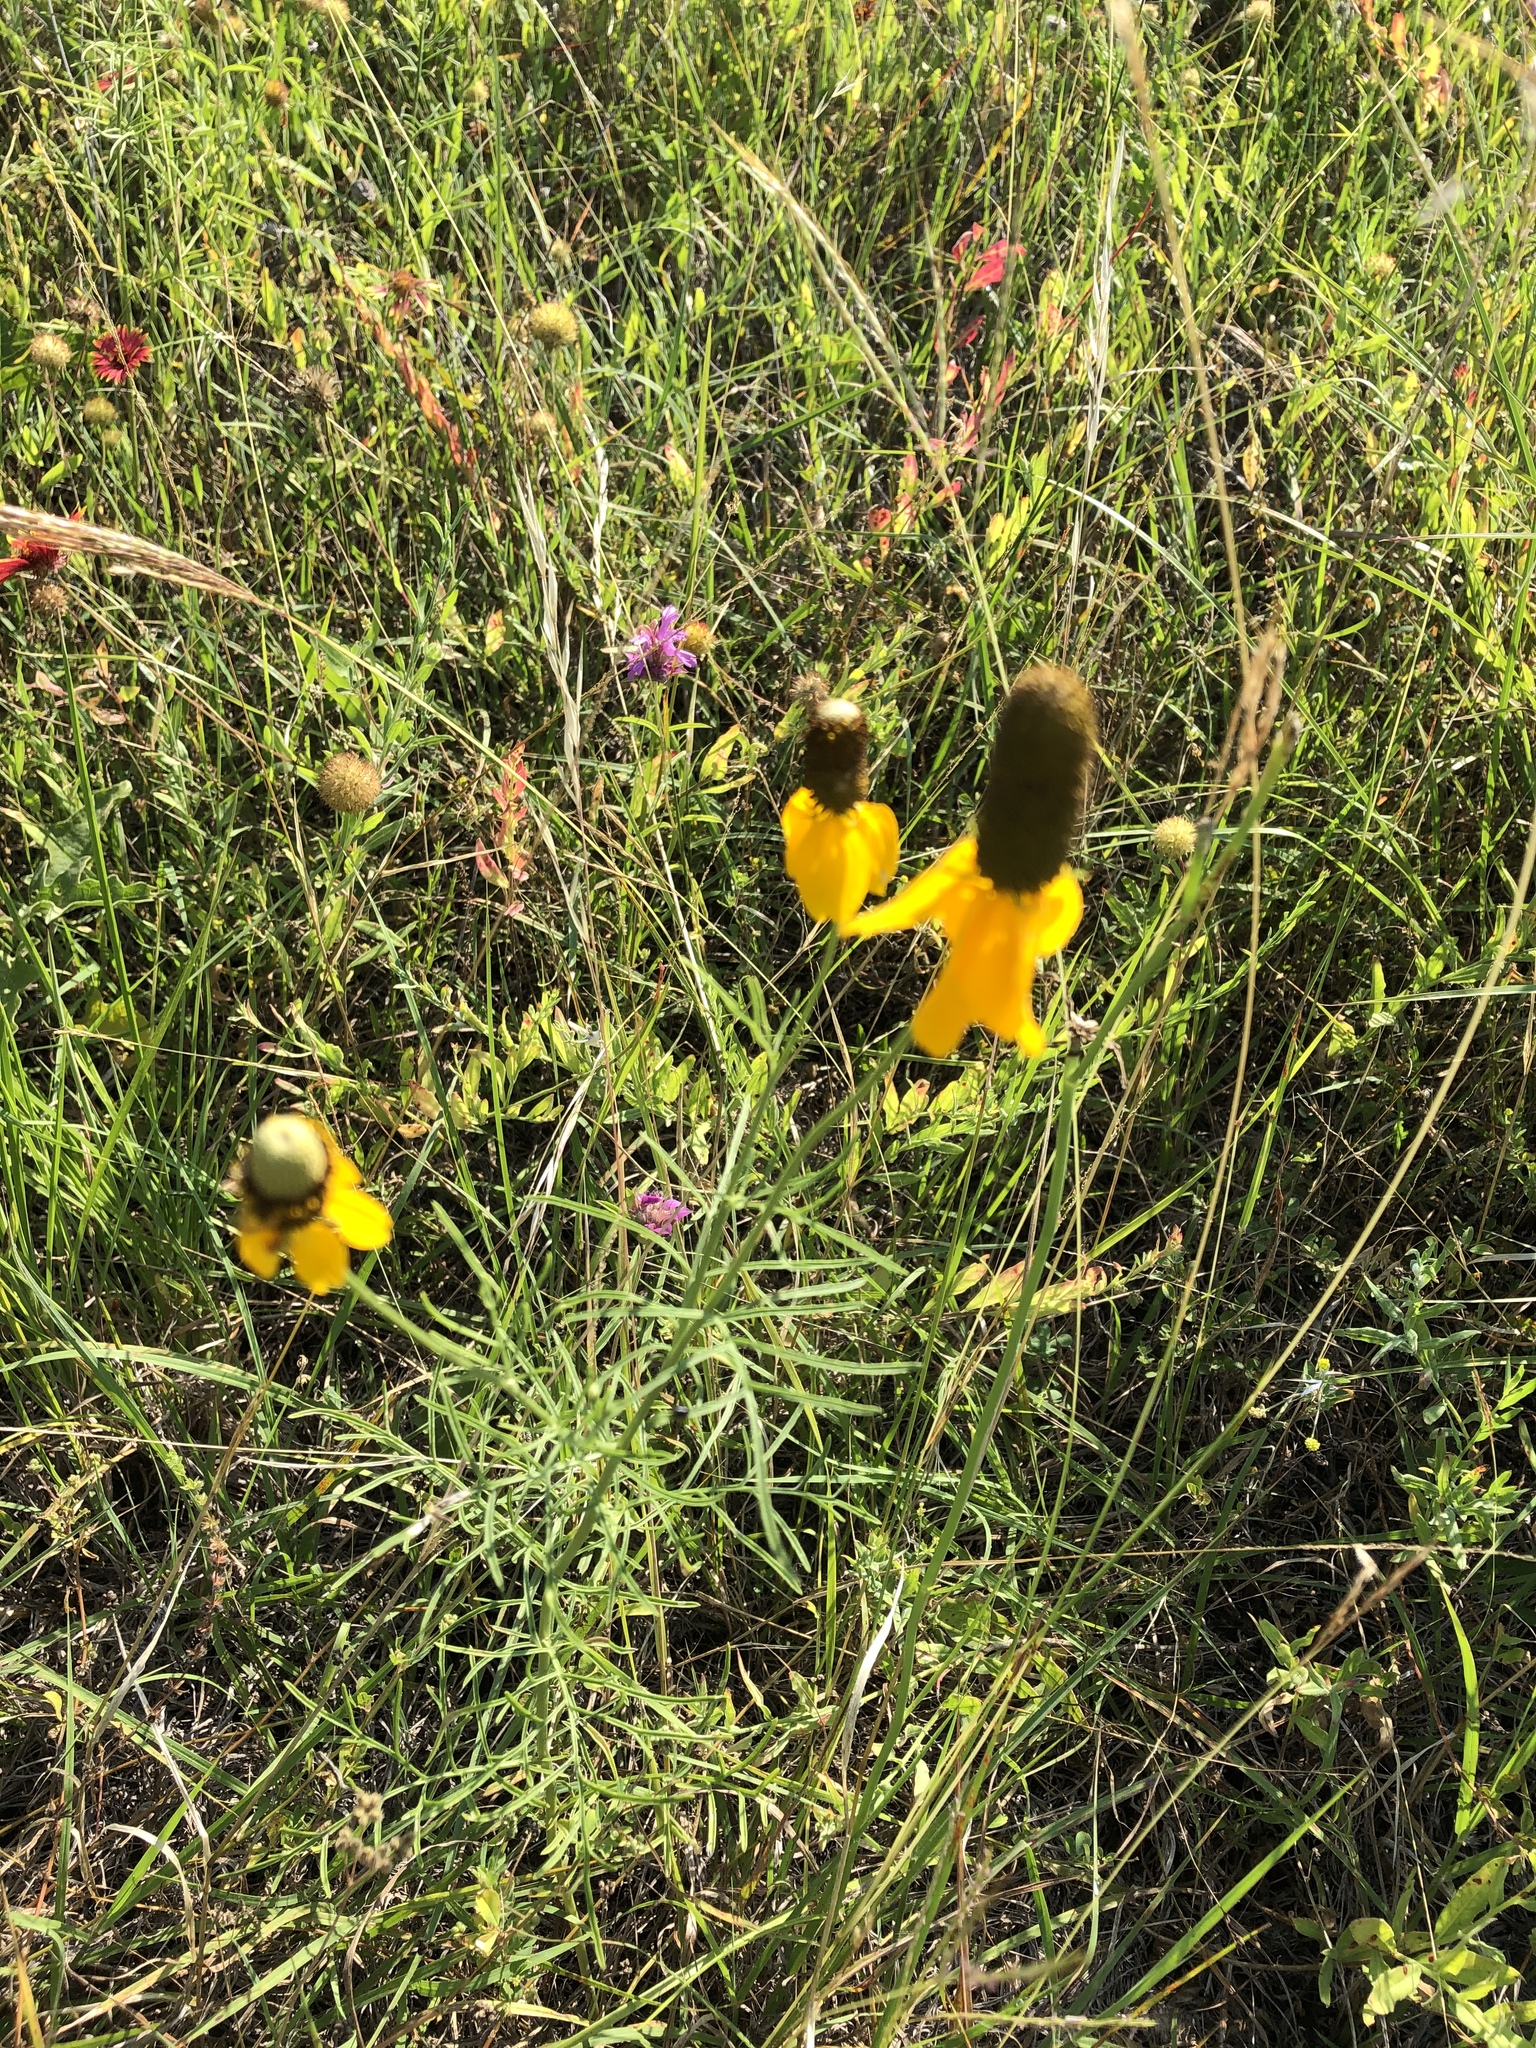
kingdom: Plantae
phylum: Tracheophyta
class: Magnoliopsida
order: Asterales
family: Asteraceae
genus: Ratibida
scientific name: Ratibida columnifera
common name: Prairie coneflower
